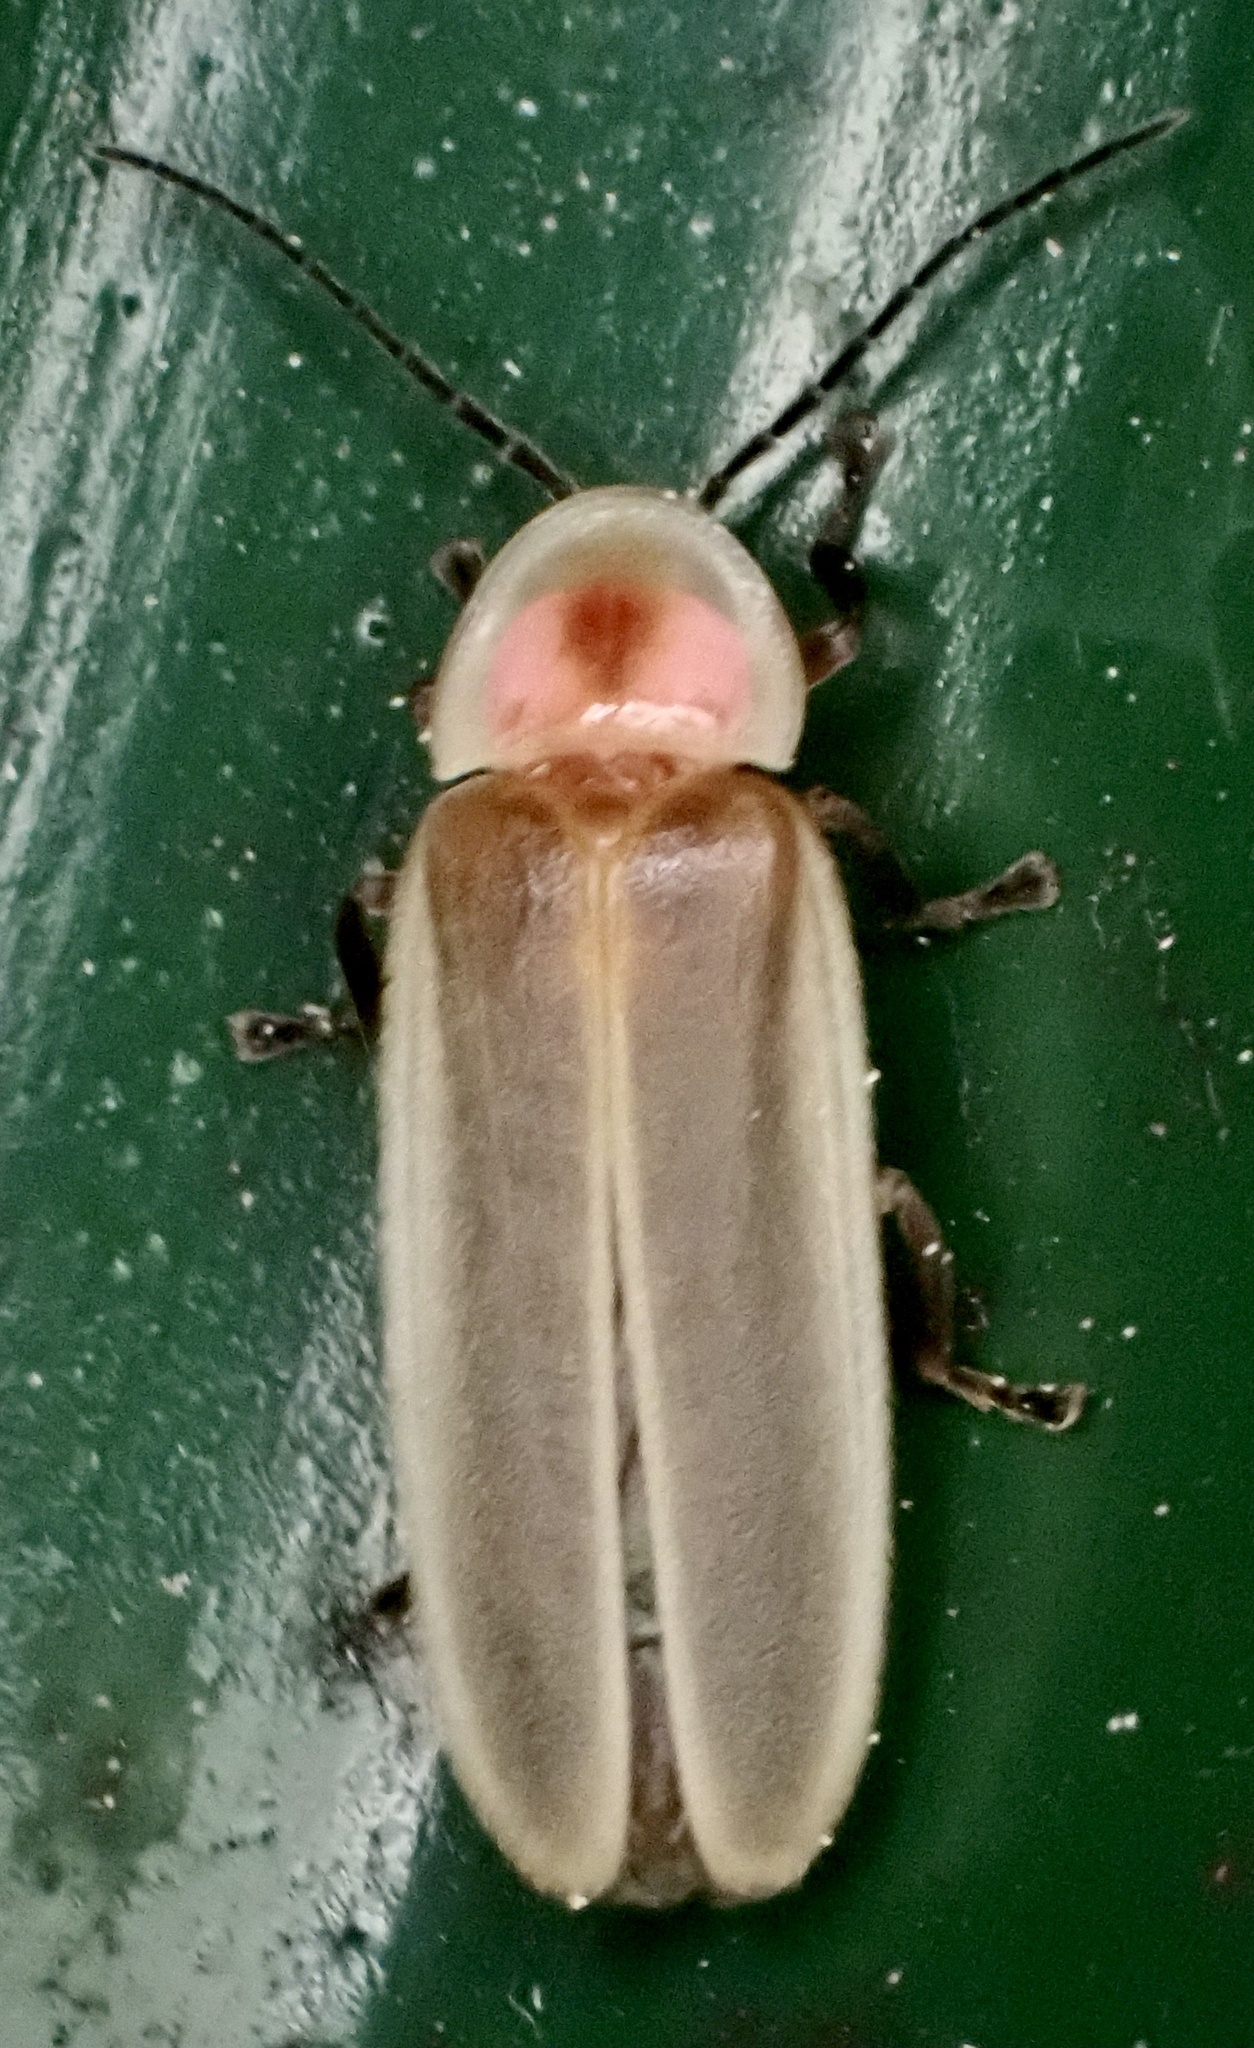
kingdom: Animalia
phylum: Arthropoda
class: Insecta
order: Coleoptera
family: Lampyridae
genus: Photinus
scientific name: Photinus marginellus
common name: Little gray firefly
